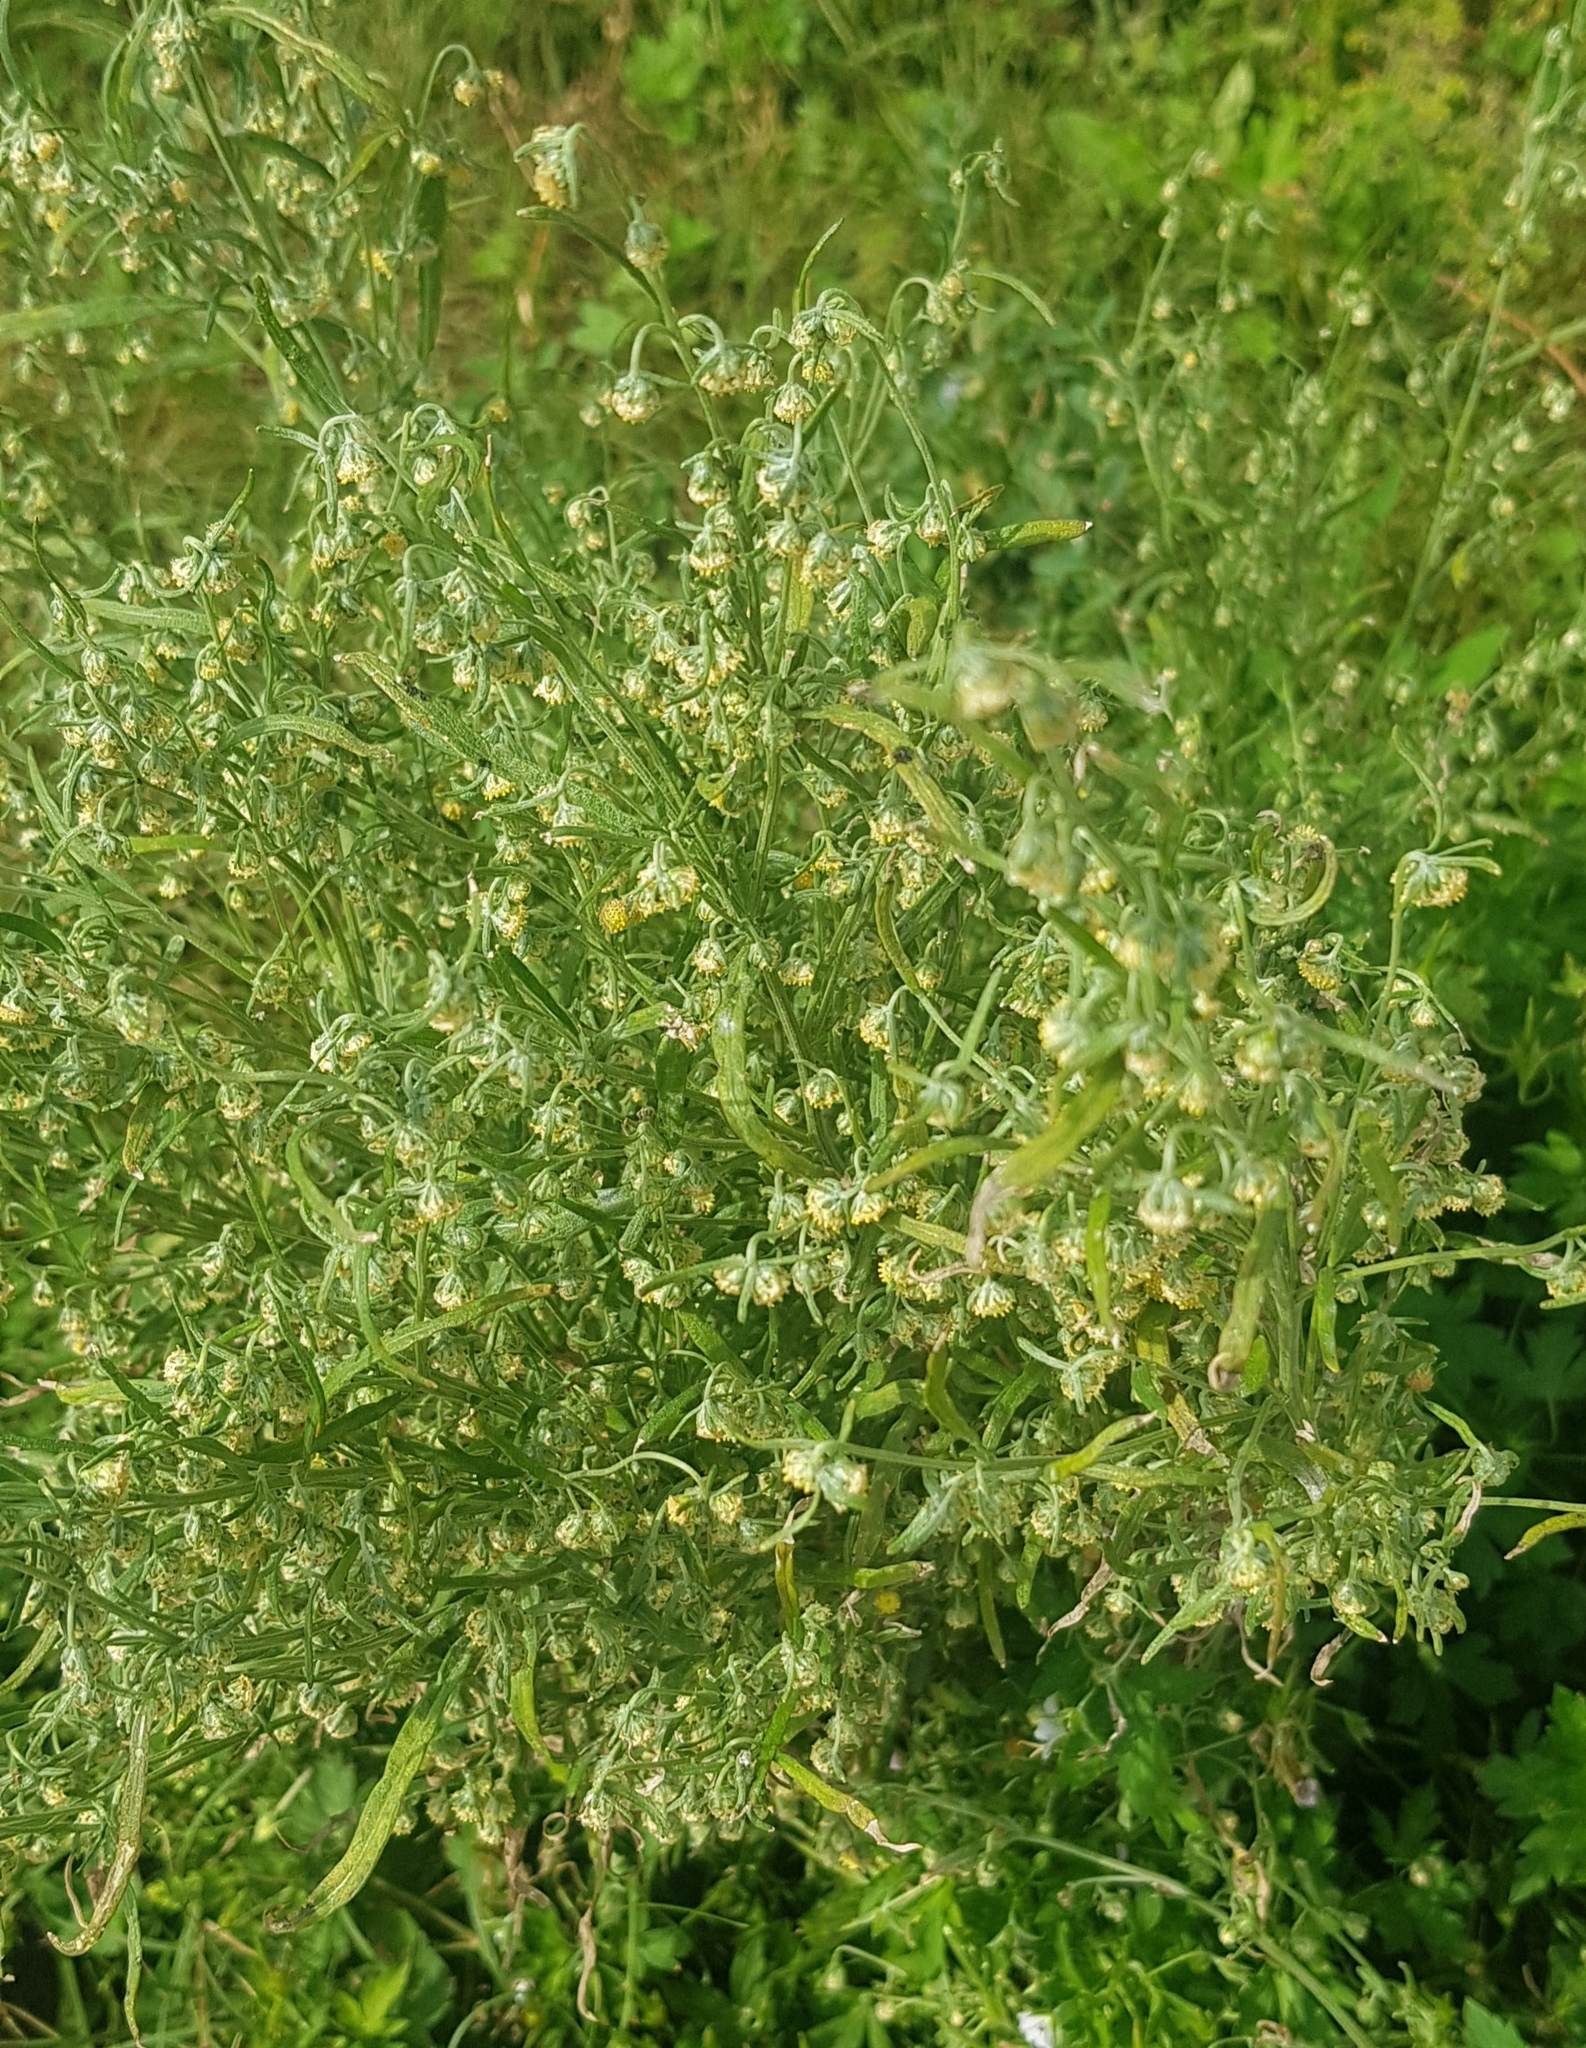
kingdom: Plantae
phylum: Tracheophyta
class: Magnoliopsida
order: Asterales
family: Asteraceae
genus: Artemisia
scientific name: Artemisia sieversiana
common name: Sieversian wormwood
